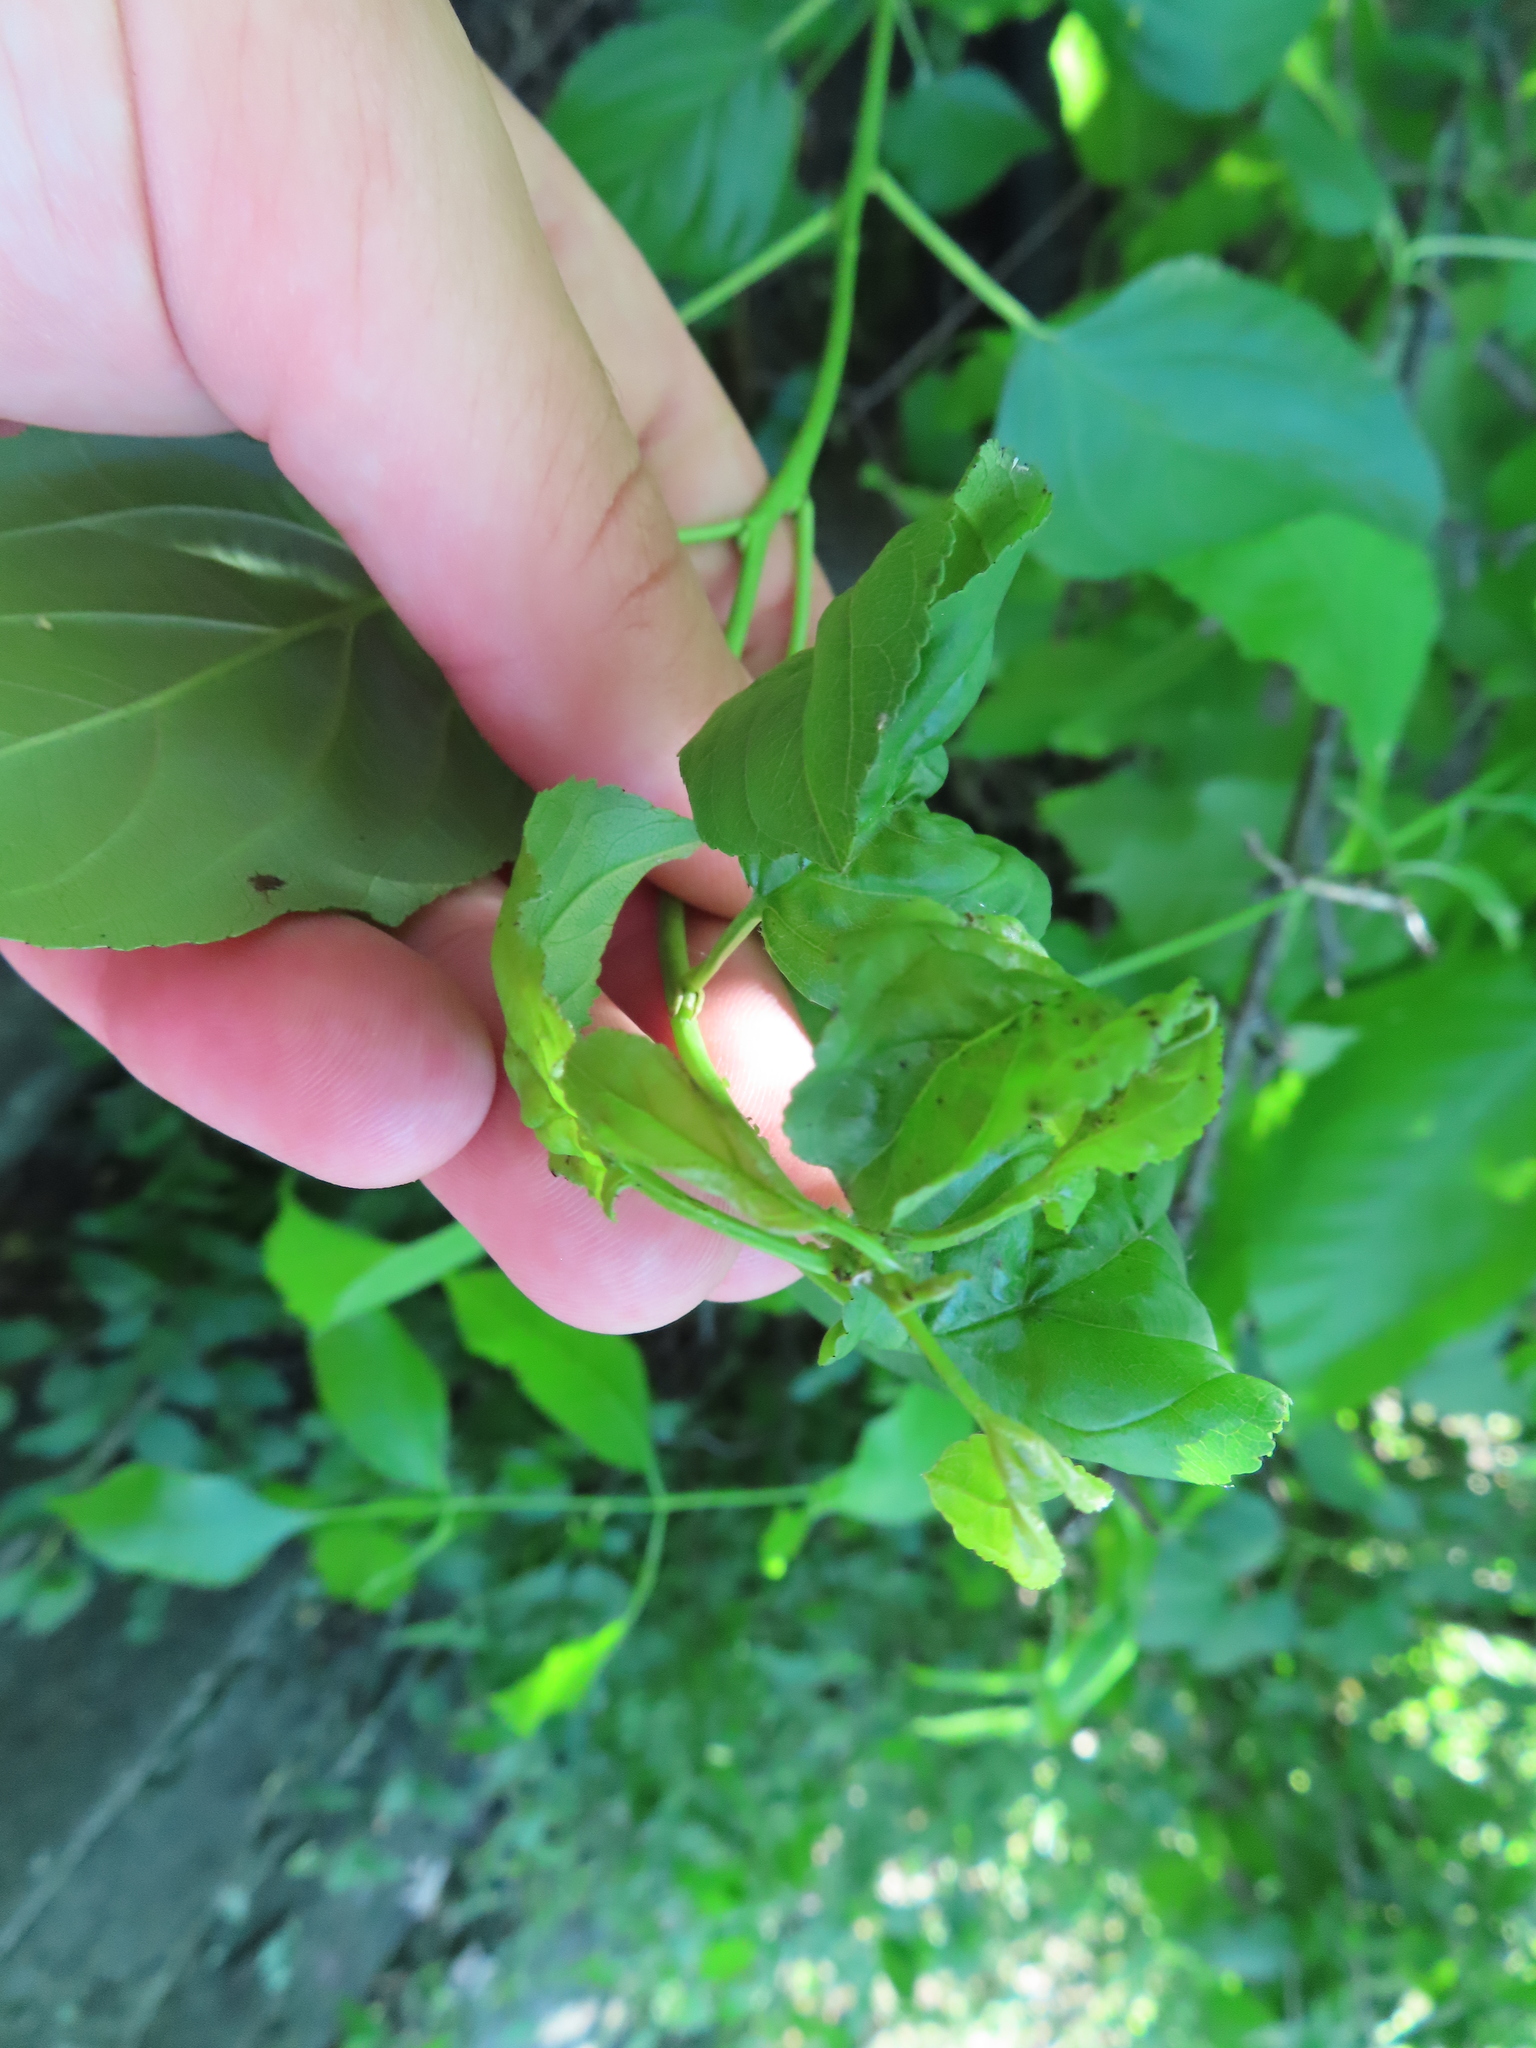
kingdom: Plantae
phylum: Tracheophyta
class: Magnoliopsida
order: Rosales
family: Rhamnaceae
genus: Rhamnus
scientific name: Rhamnus cathartica
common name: Common buckthorn
